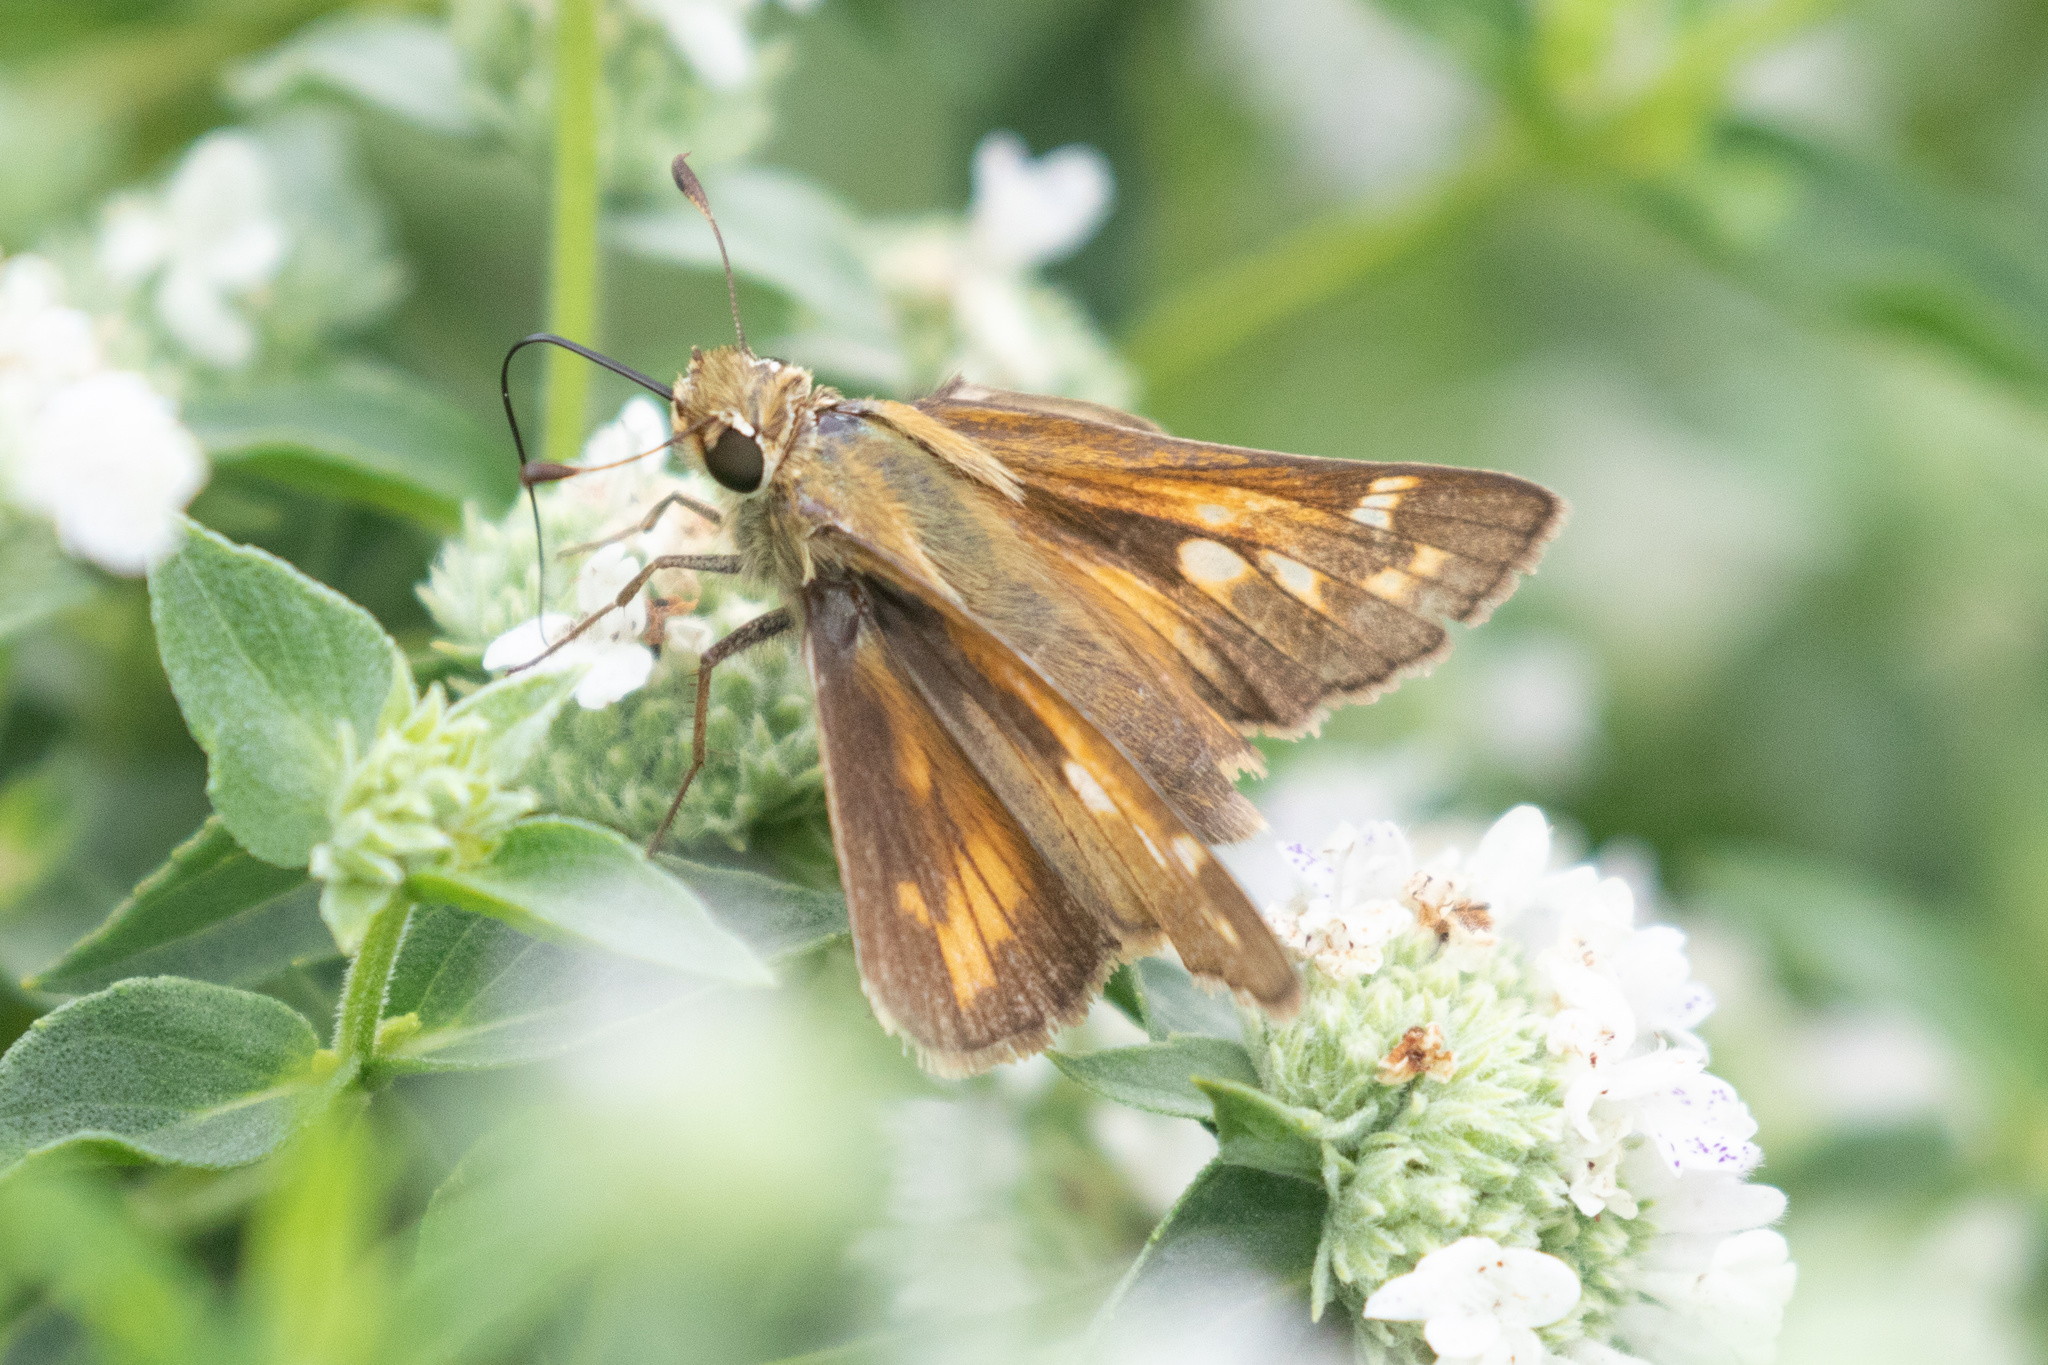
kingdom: Animalia
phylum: Arthropoda
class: Insecta
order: Lepidoptera
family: Hesperiidae
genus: Atalopedes
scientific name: Atalopedes
